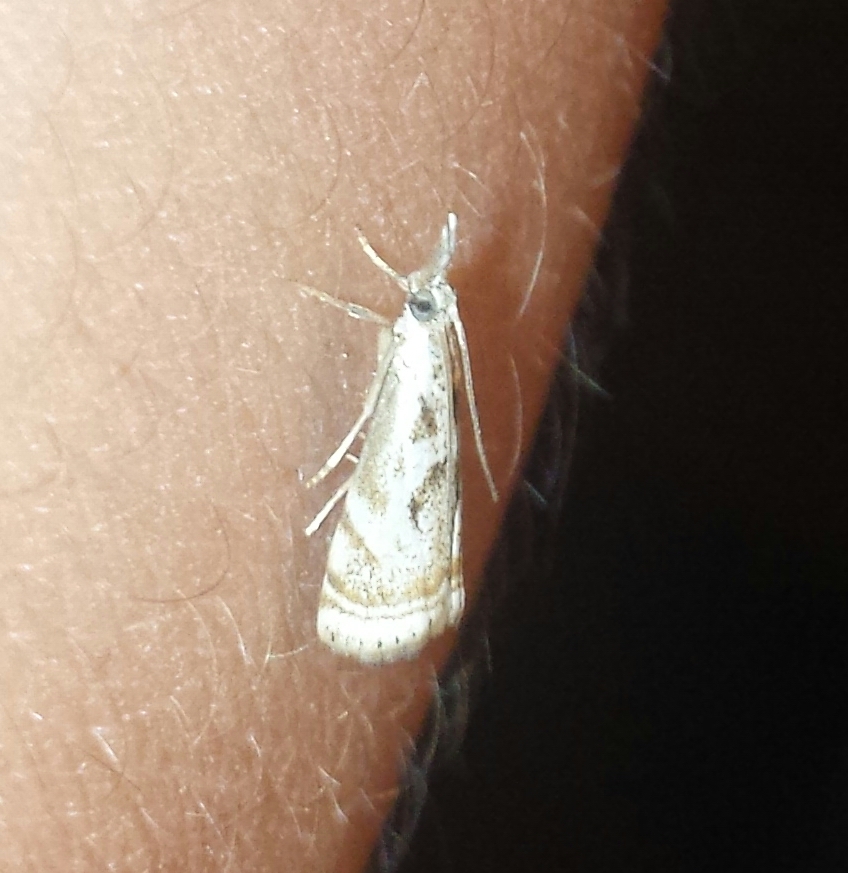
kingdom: Animalia
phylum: Arthropoda
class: Insecta
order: Lepidoptera
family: Crambidae
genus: Microcrambus
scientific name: Microcrambus elegans
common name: Elegant grass-veneer
